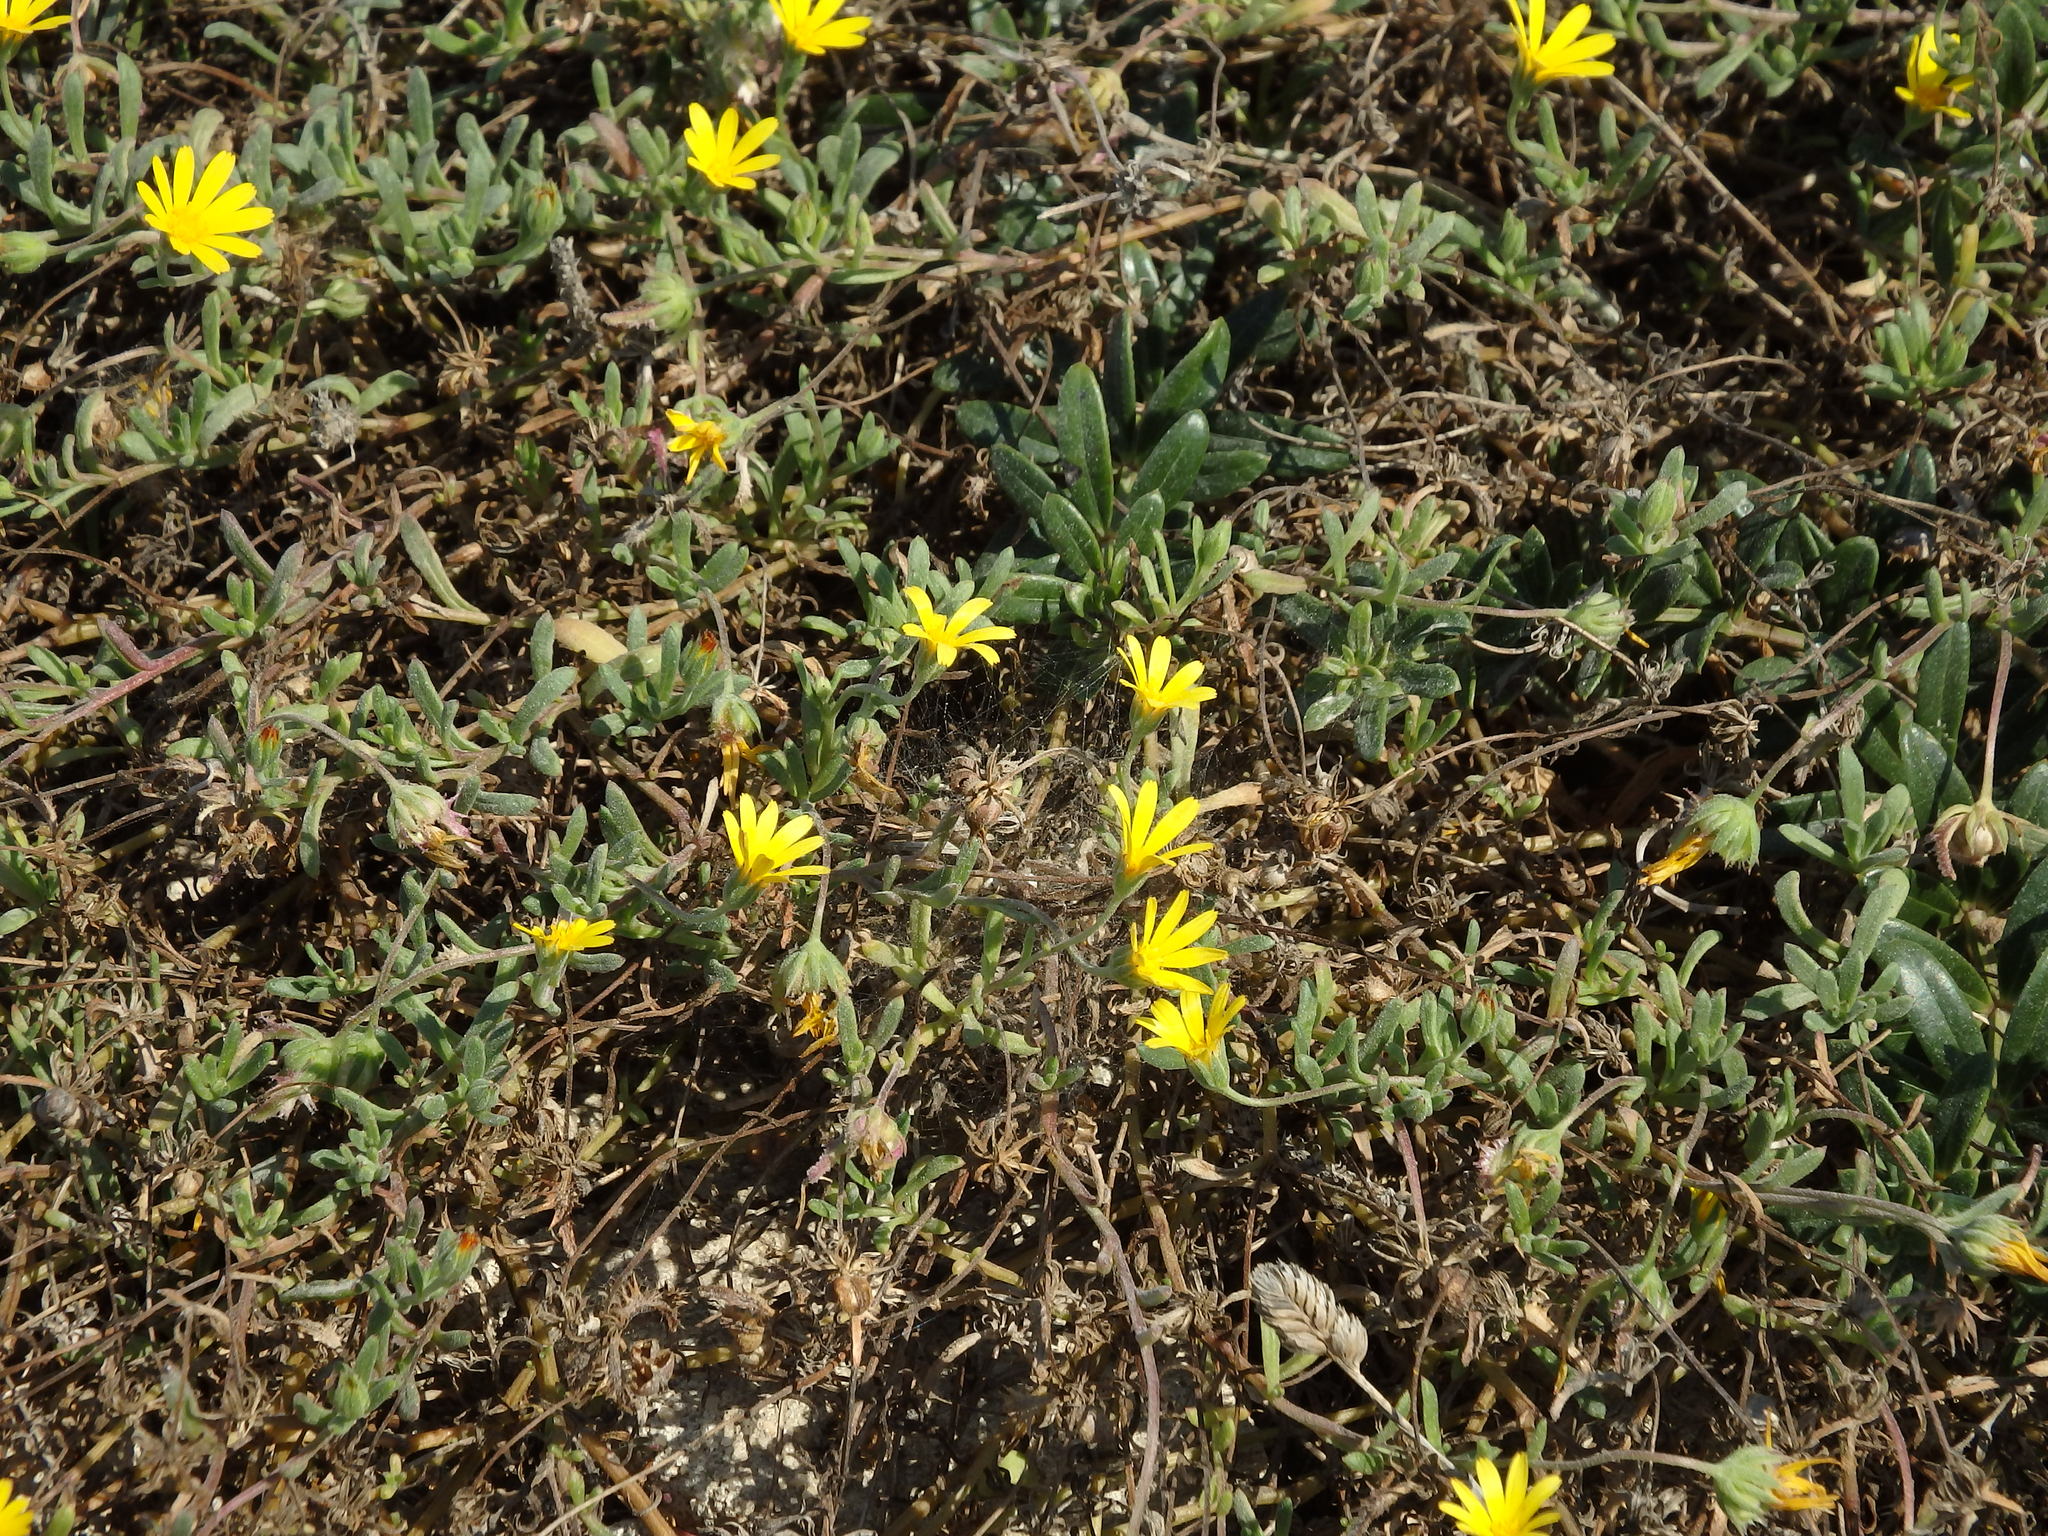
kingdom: Plantae
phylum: Tracheophyta
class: Magnoliopsida
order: Asterales
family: Asteraceae
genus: Calendula
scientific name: Calendula suffruticosa
